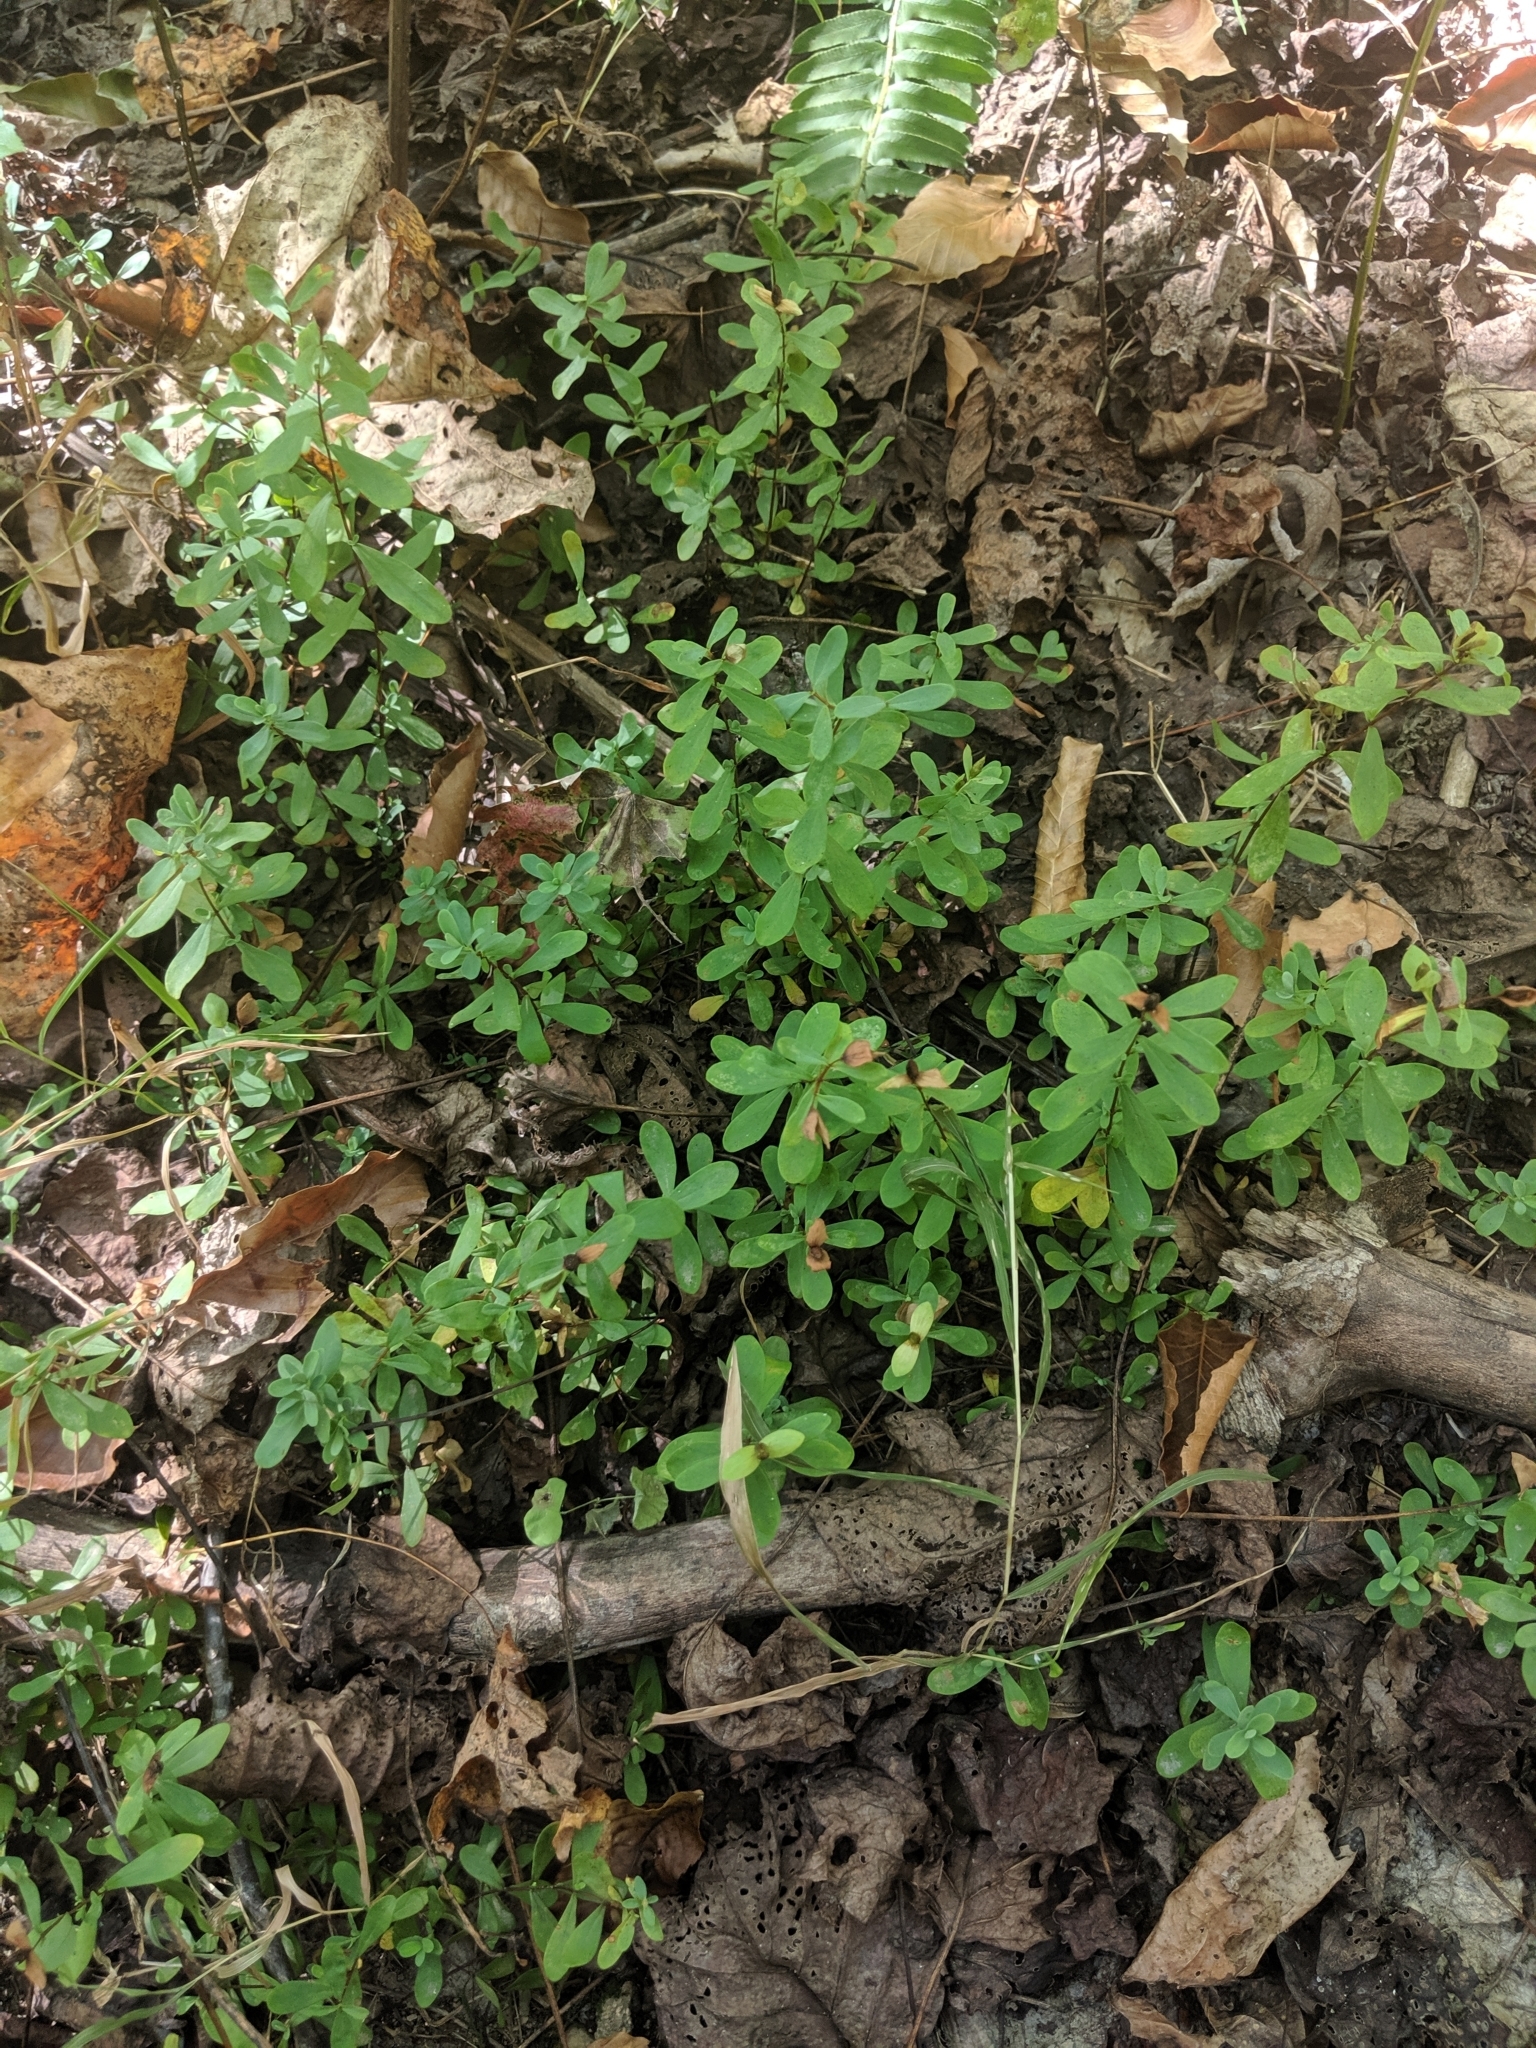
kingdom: Plantae
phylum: Tracheophyta
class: Magnoliopsida
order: Malpighiales
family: Hypericaceae
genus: Hypericum
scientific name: Hypericum hypericoides
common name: St. andrew's cross
